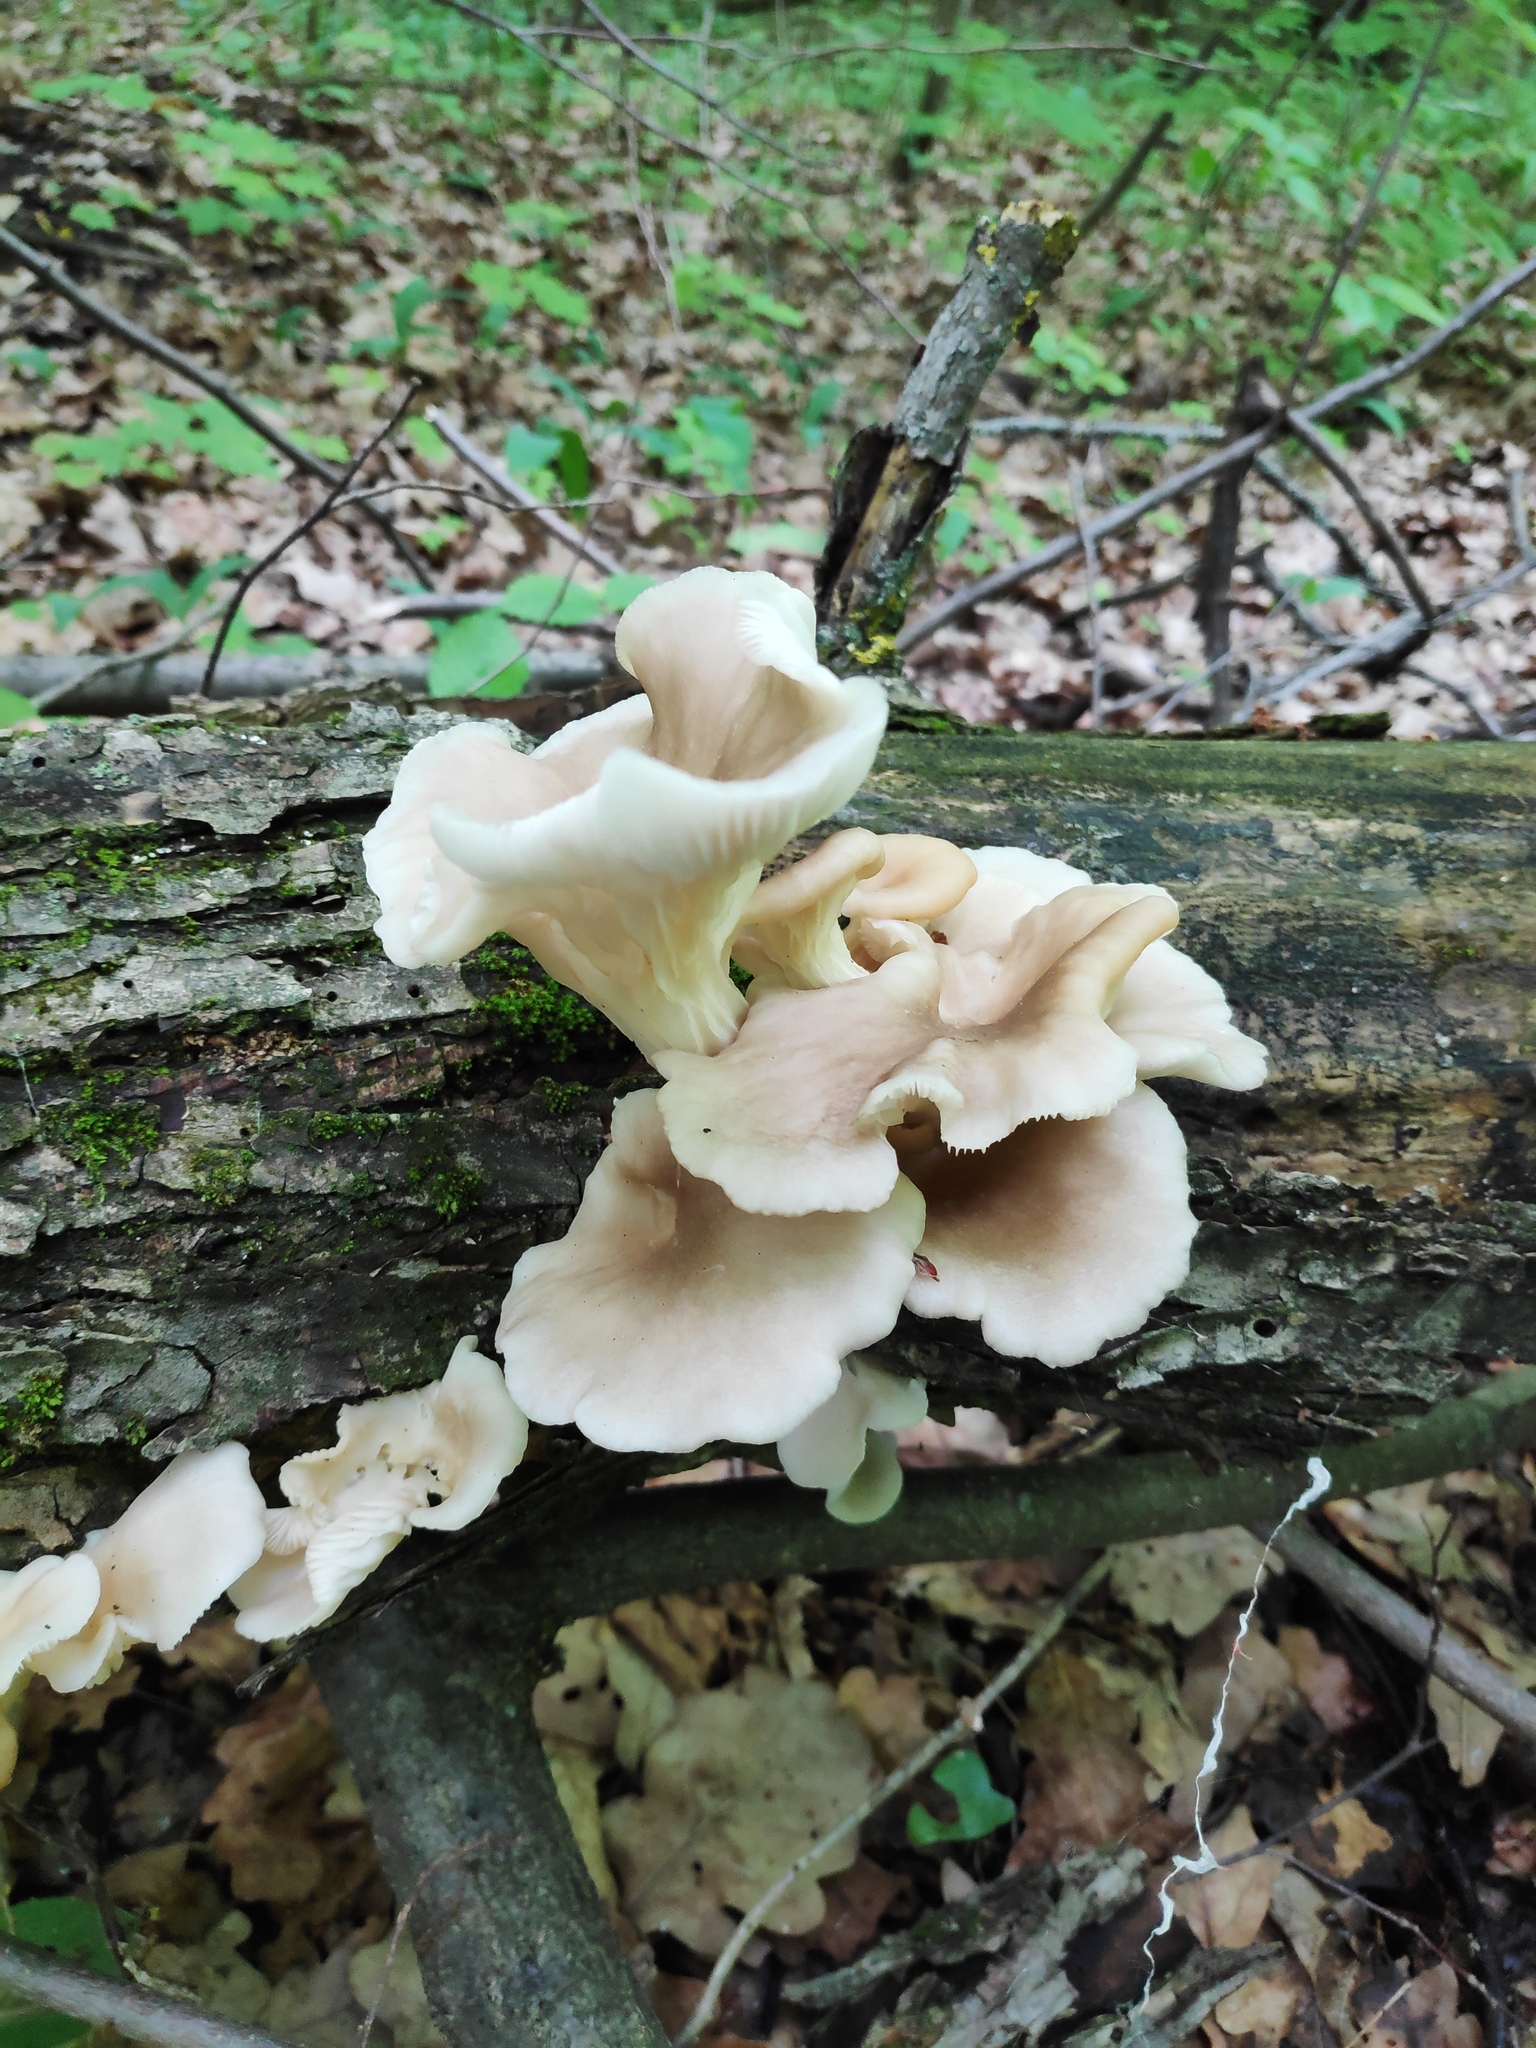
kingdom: Fungi
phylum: Basidiomycota
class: Agaricomycetes
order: Agaricales
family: Pleurotaceae
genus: Pleurotus
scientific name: Pleurotus pulmonarius
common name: Pale oyster
